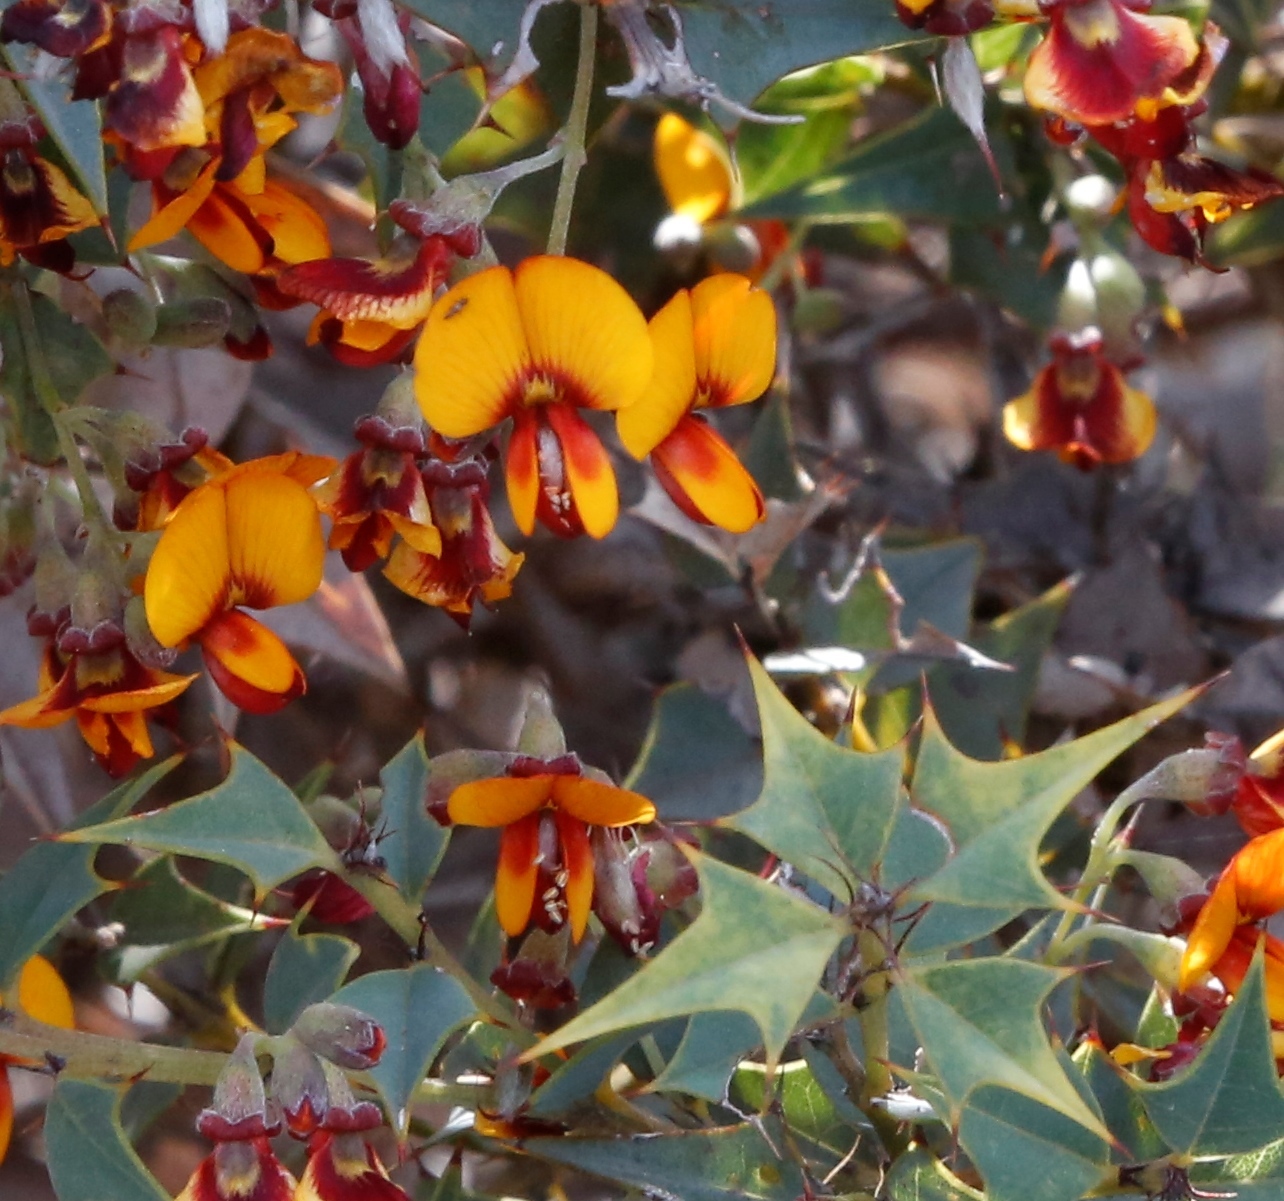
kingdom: Plantae
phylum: Tracheophyta
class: Magnoliopsida
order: Fabales
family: Fabaceae
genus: Gastrolobium
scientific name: Gastrolobium trilobum
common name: Bullock poison
